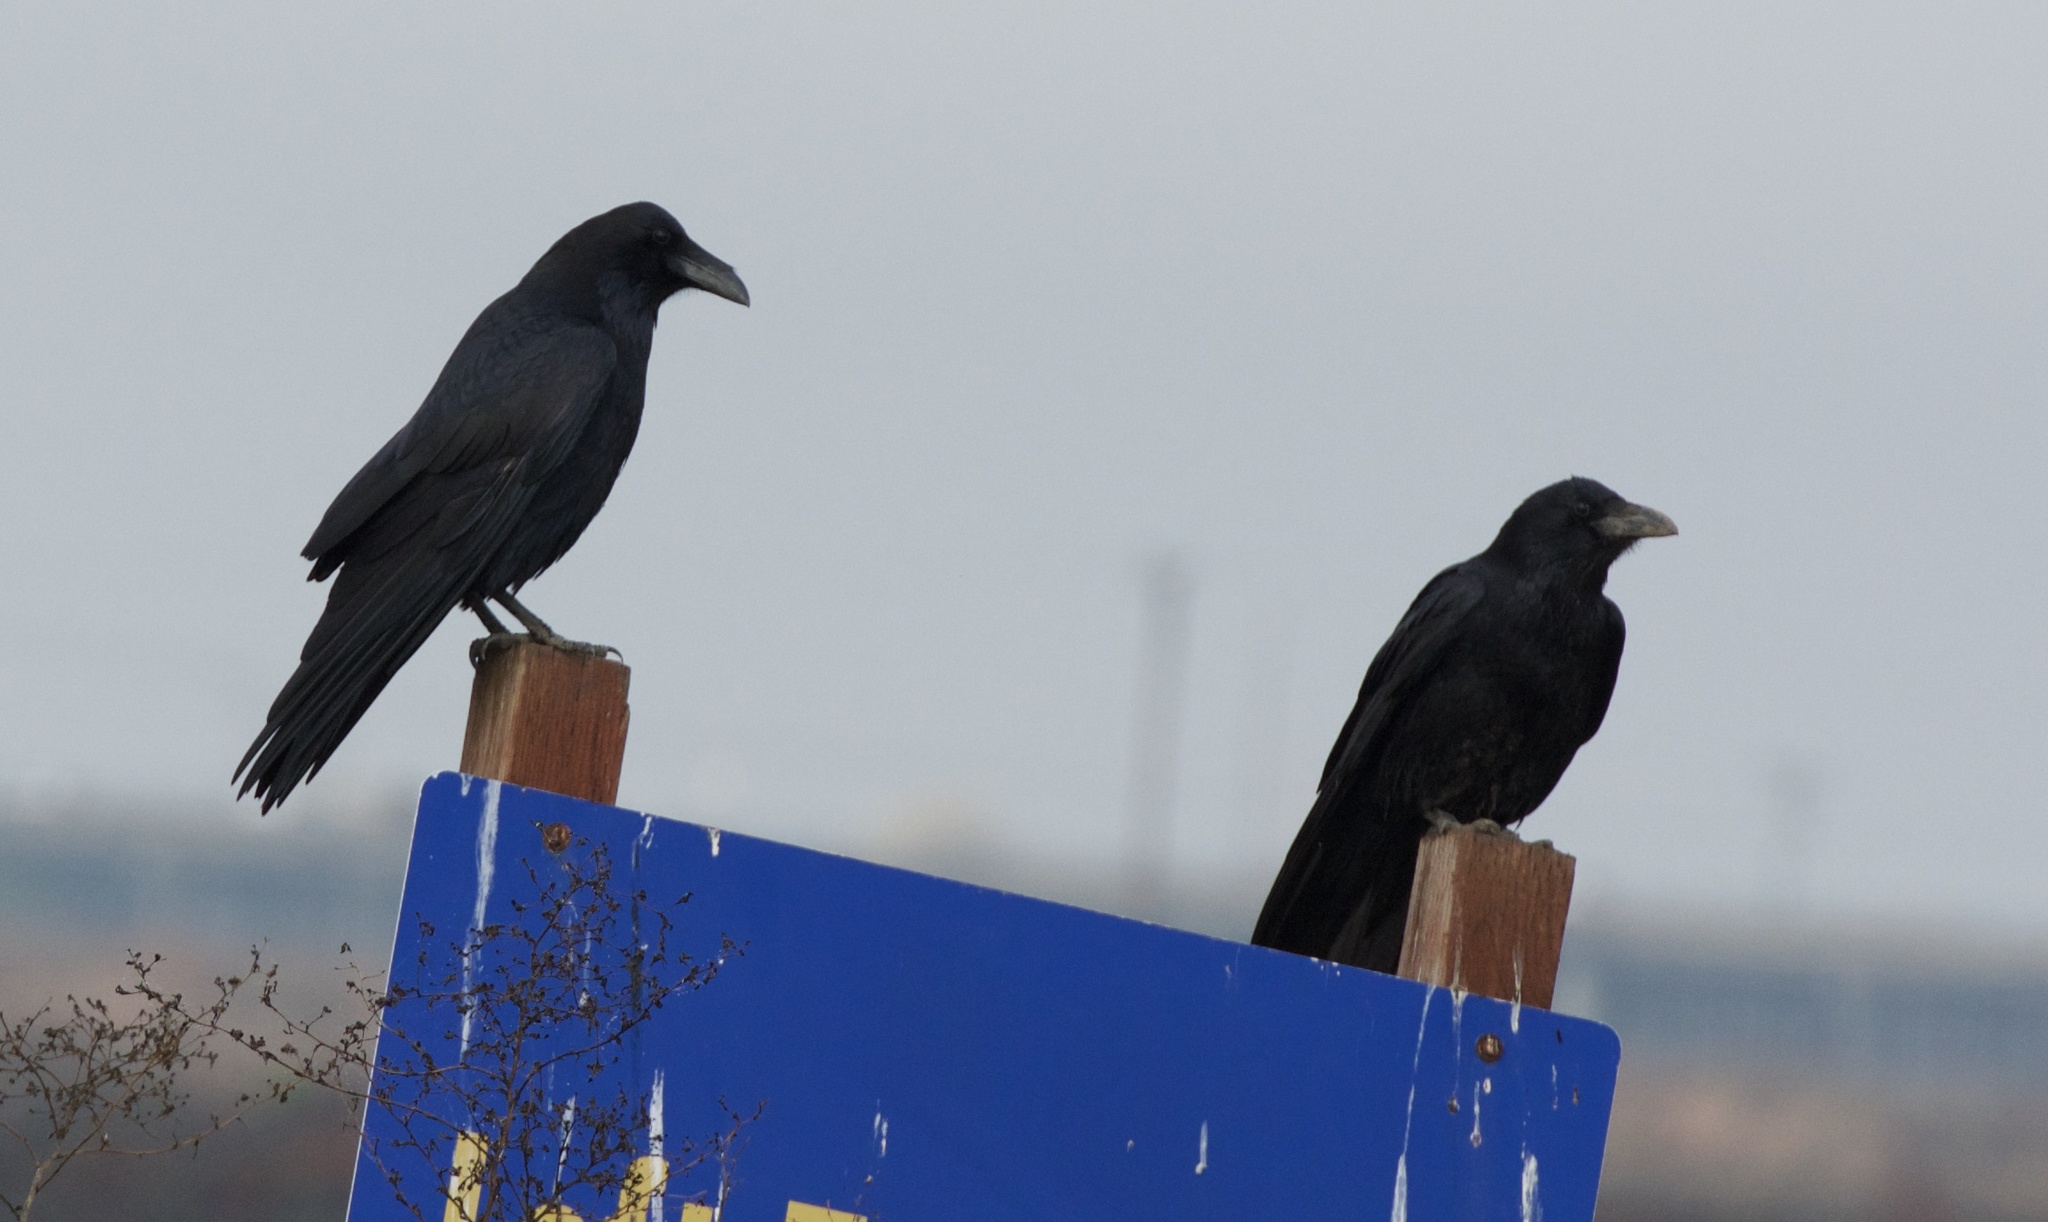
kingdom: Animalia
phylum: Chordata
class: Aves
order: Passeriformes
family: Corvidae
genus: Corvus
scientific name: Corvus corax
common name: Common raven
